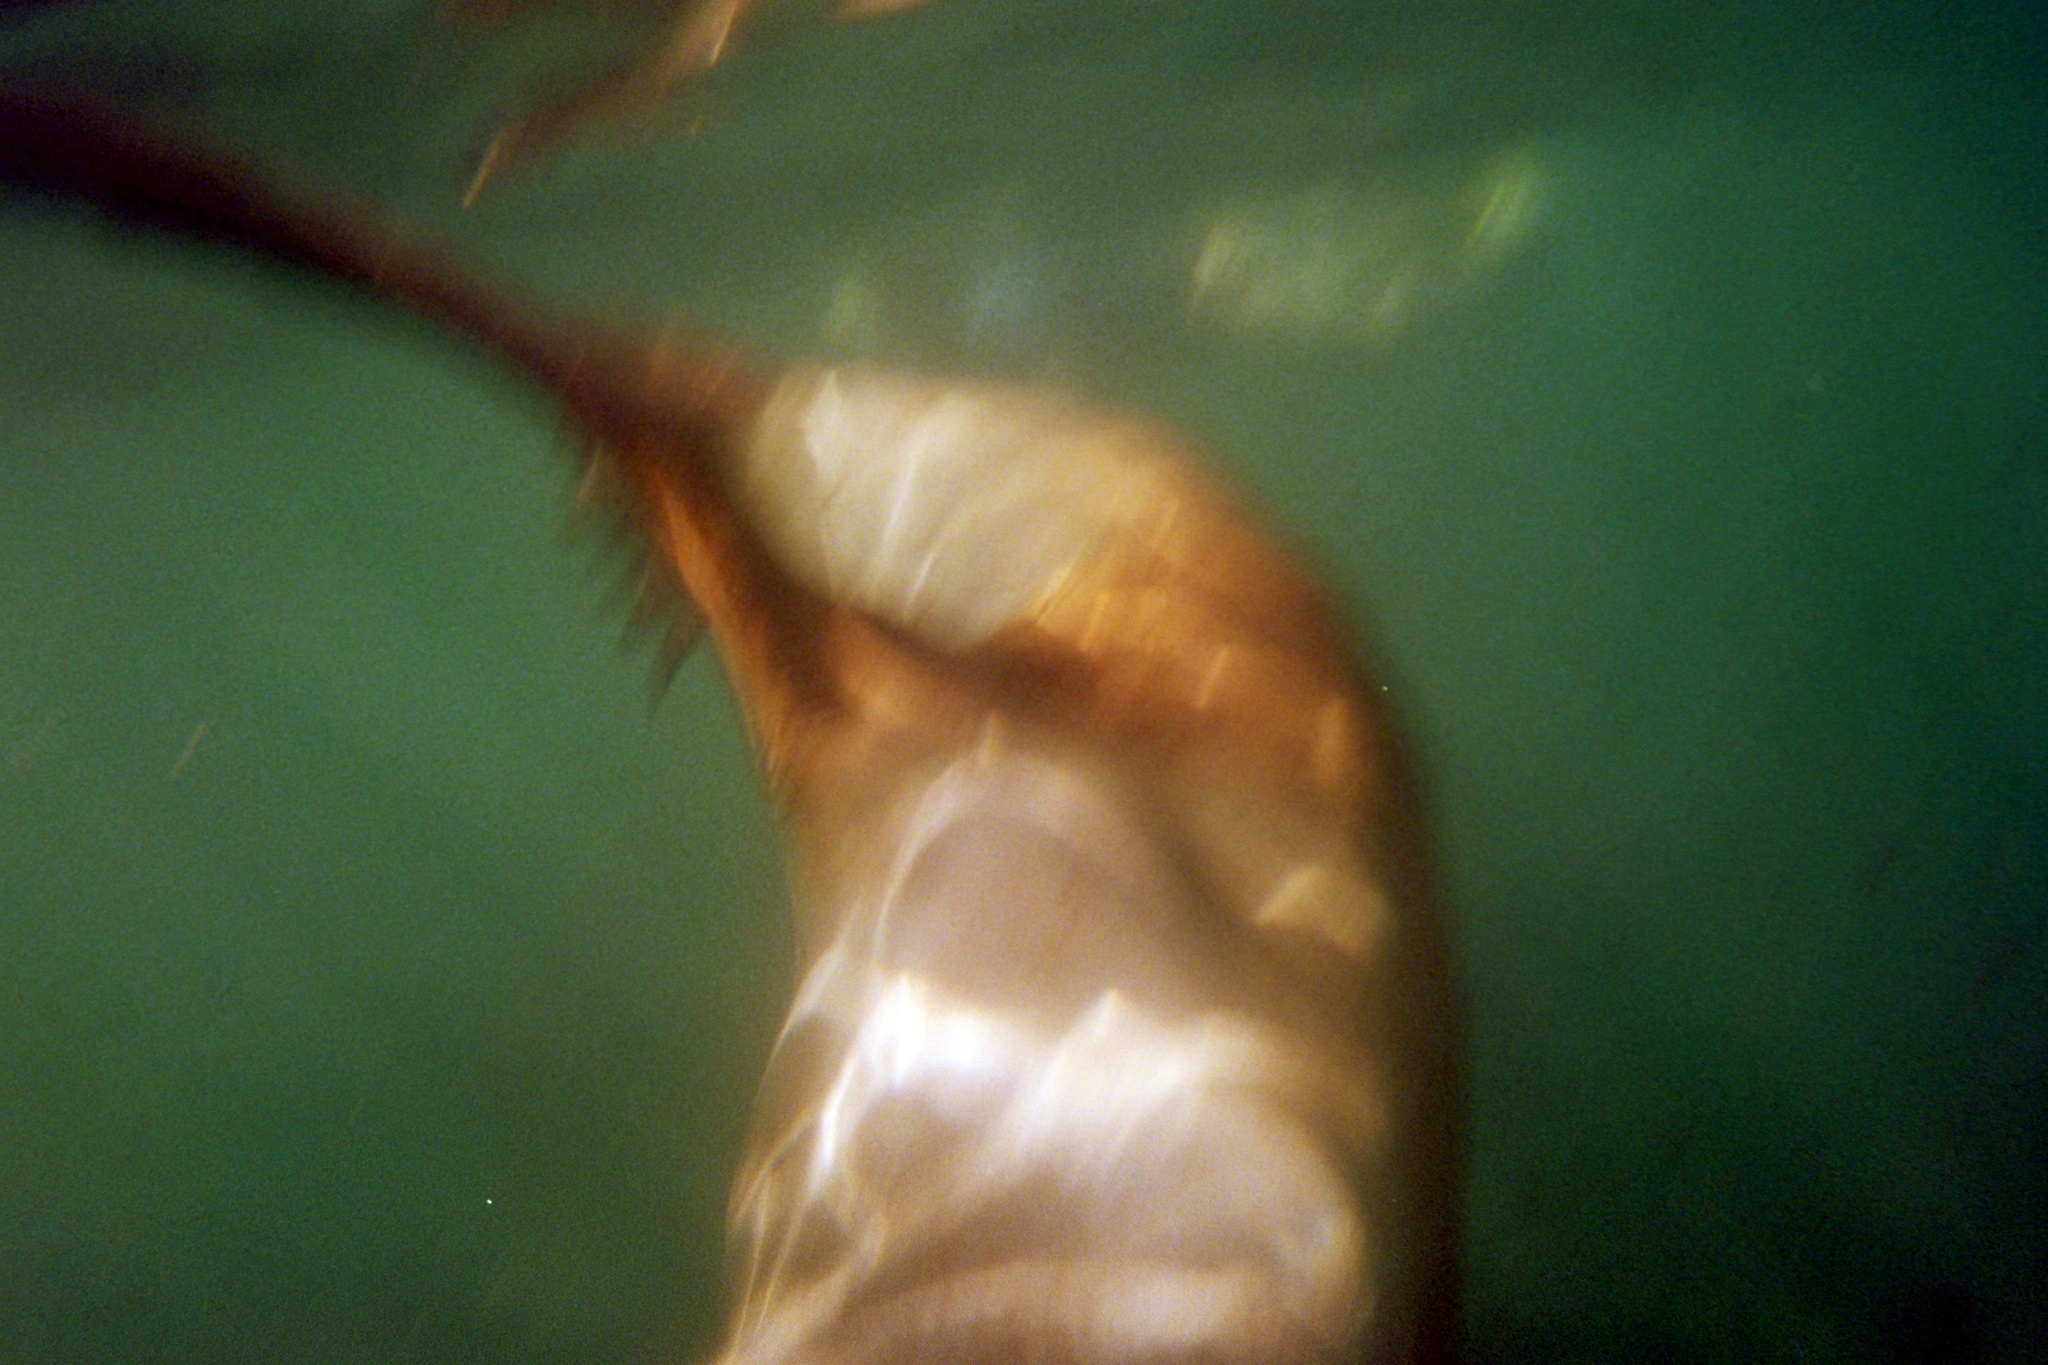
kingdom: Animalia
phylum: Chordata
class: Mammalia
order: Carnivora
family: Otariidae
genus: Zalophus
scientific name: Zalophus californianus
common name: California sea lion
